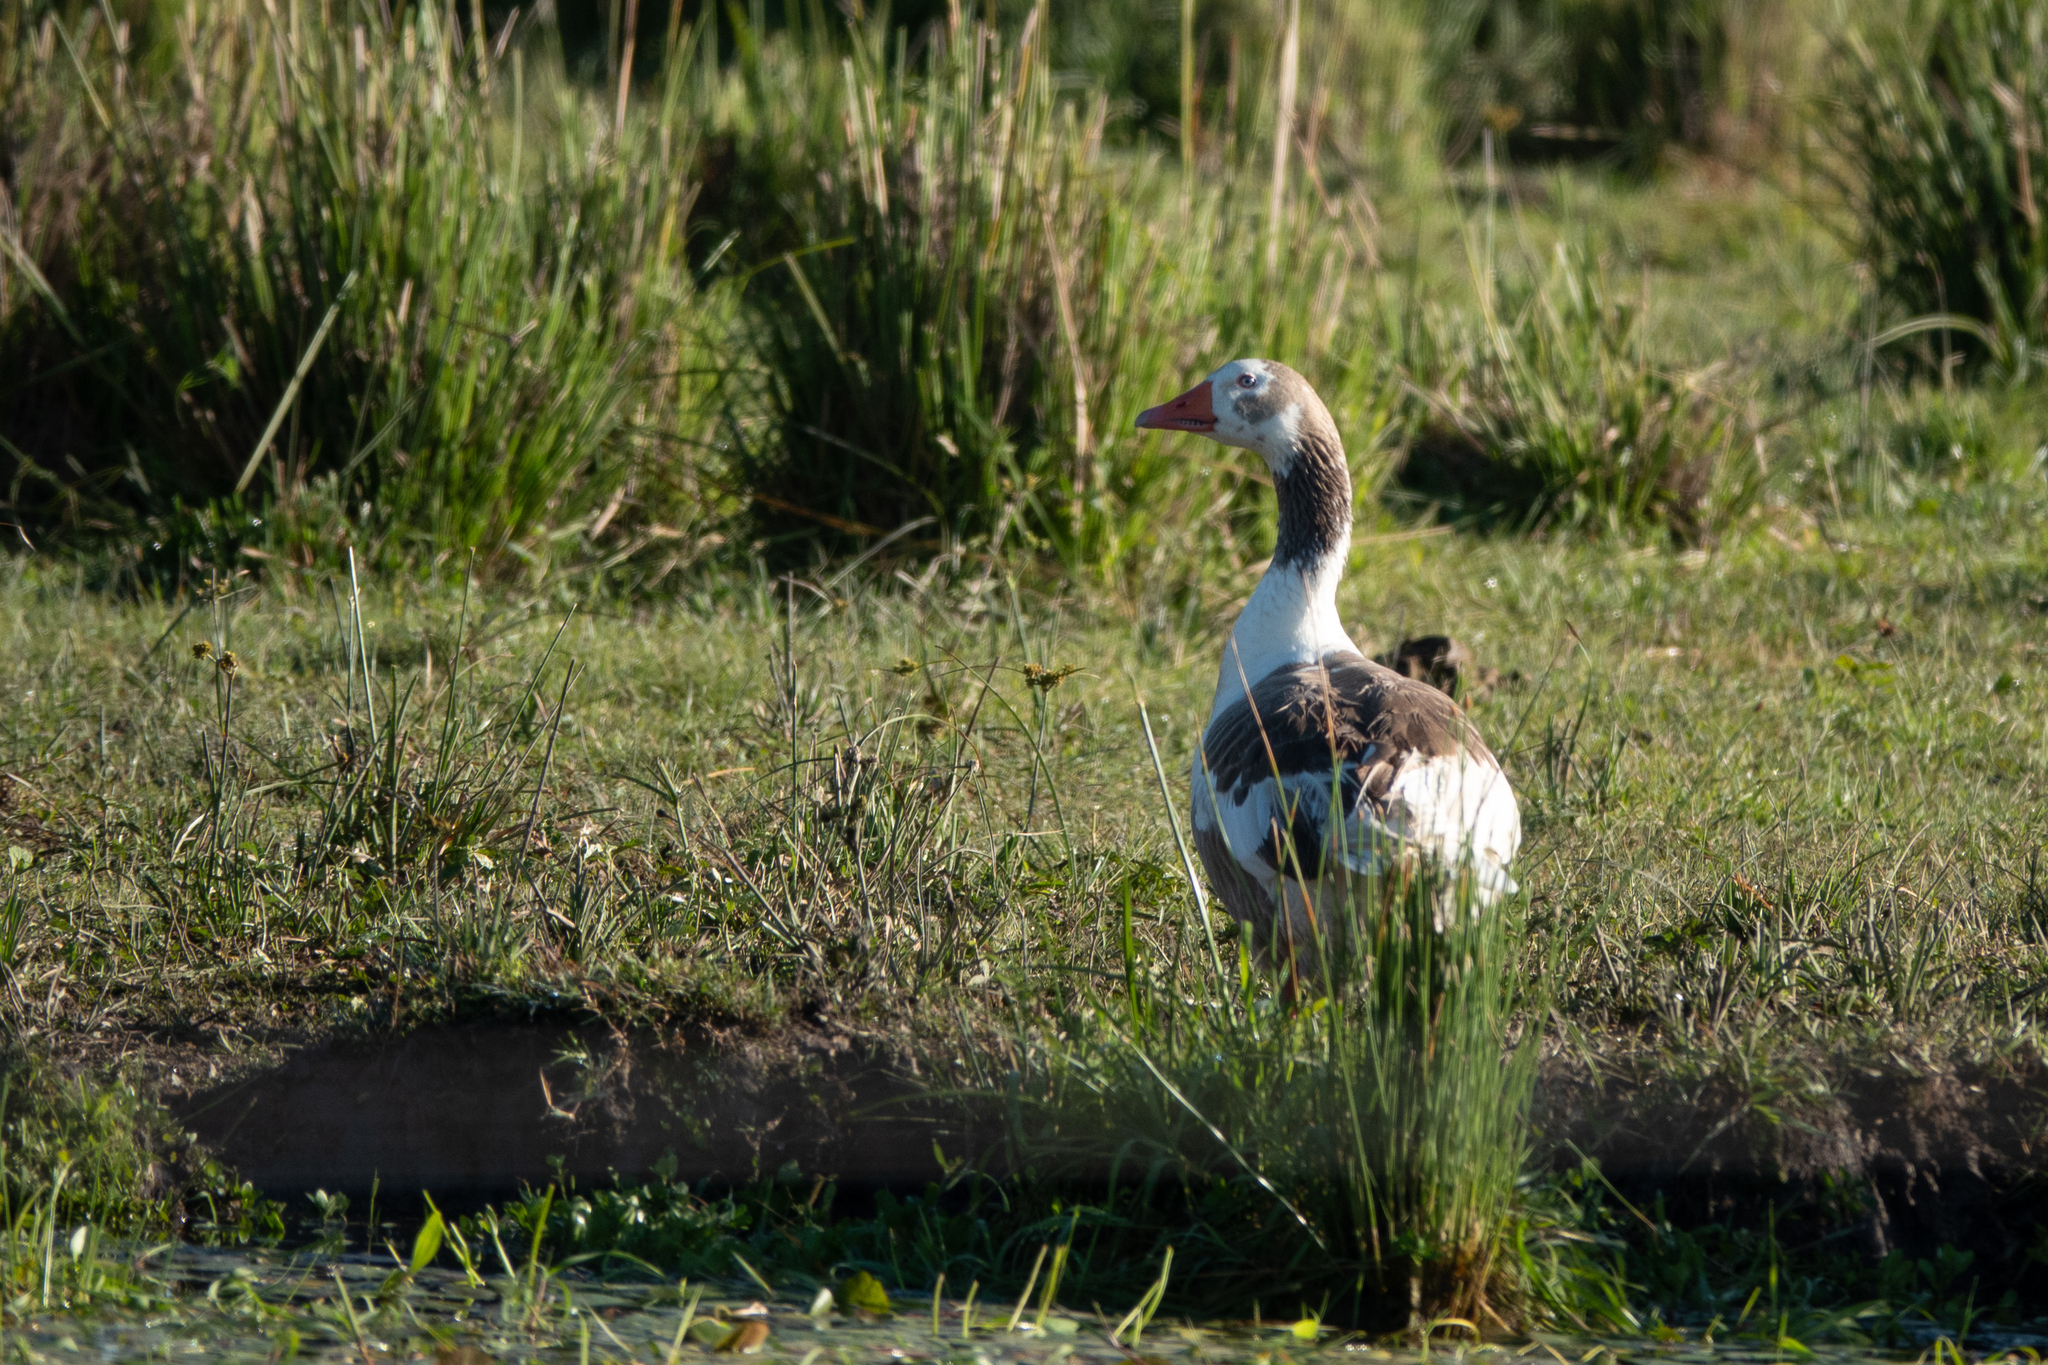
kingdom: Animalia
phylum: Chordata
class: Aves
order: Anseriformes
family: Anatidae
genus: Anser
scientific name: Anser anser
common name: Greylag goose
